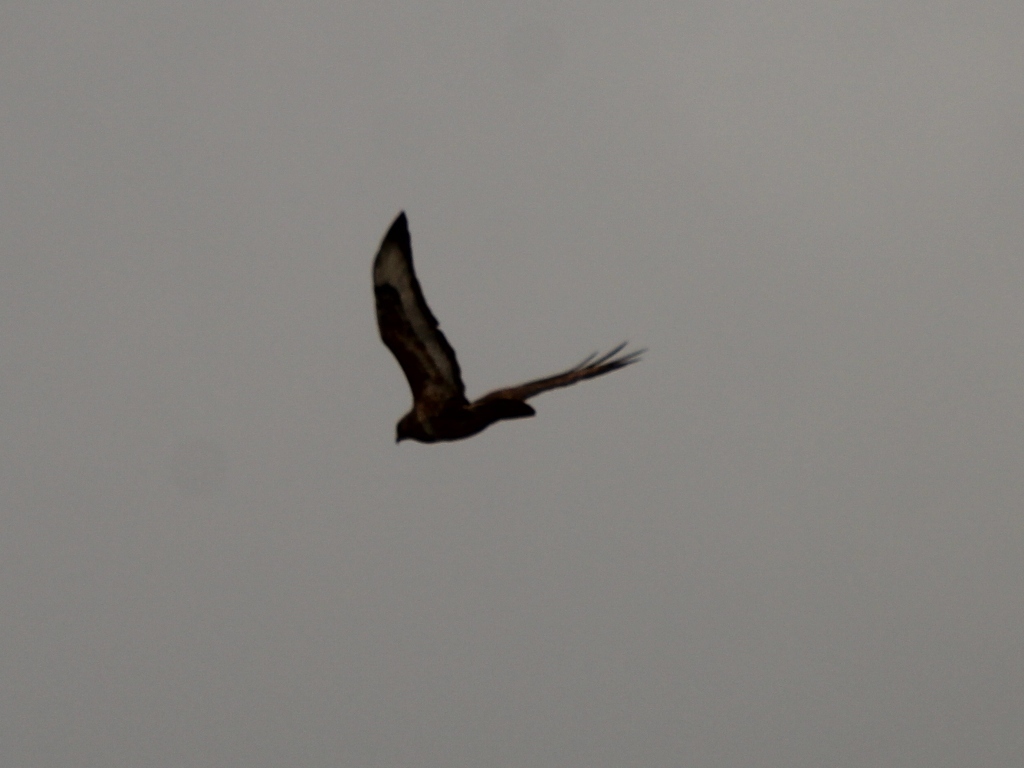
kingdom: Animalia
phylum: Chordata
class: Aves
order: Accipitriformes
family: Accipitridae
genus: Buteo
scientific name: Buteo buteo
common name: Common buzzard
